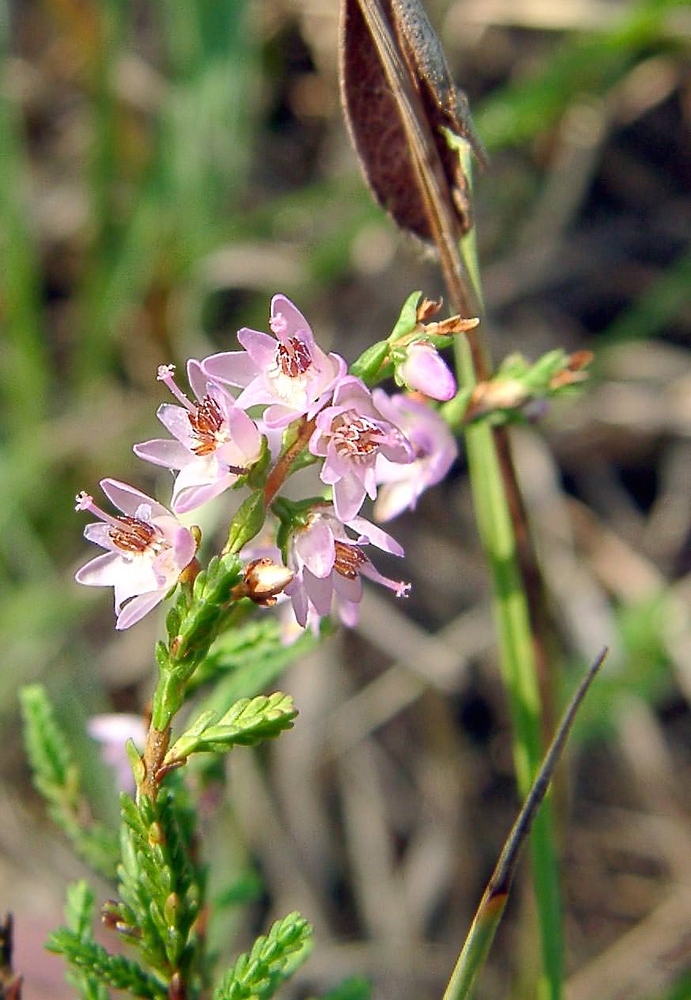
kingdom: Plantae
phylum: Tracheophyta
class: Magnoliopsida
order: Ericales
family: Ericaceae
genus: Calluna
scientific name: Calluna vulgaris
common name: Heather
